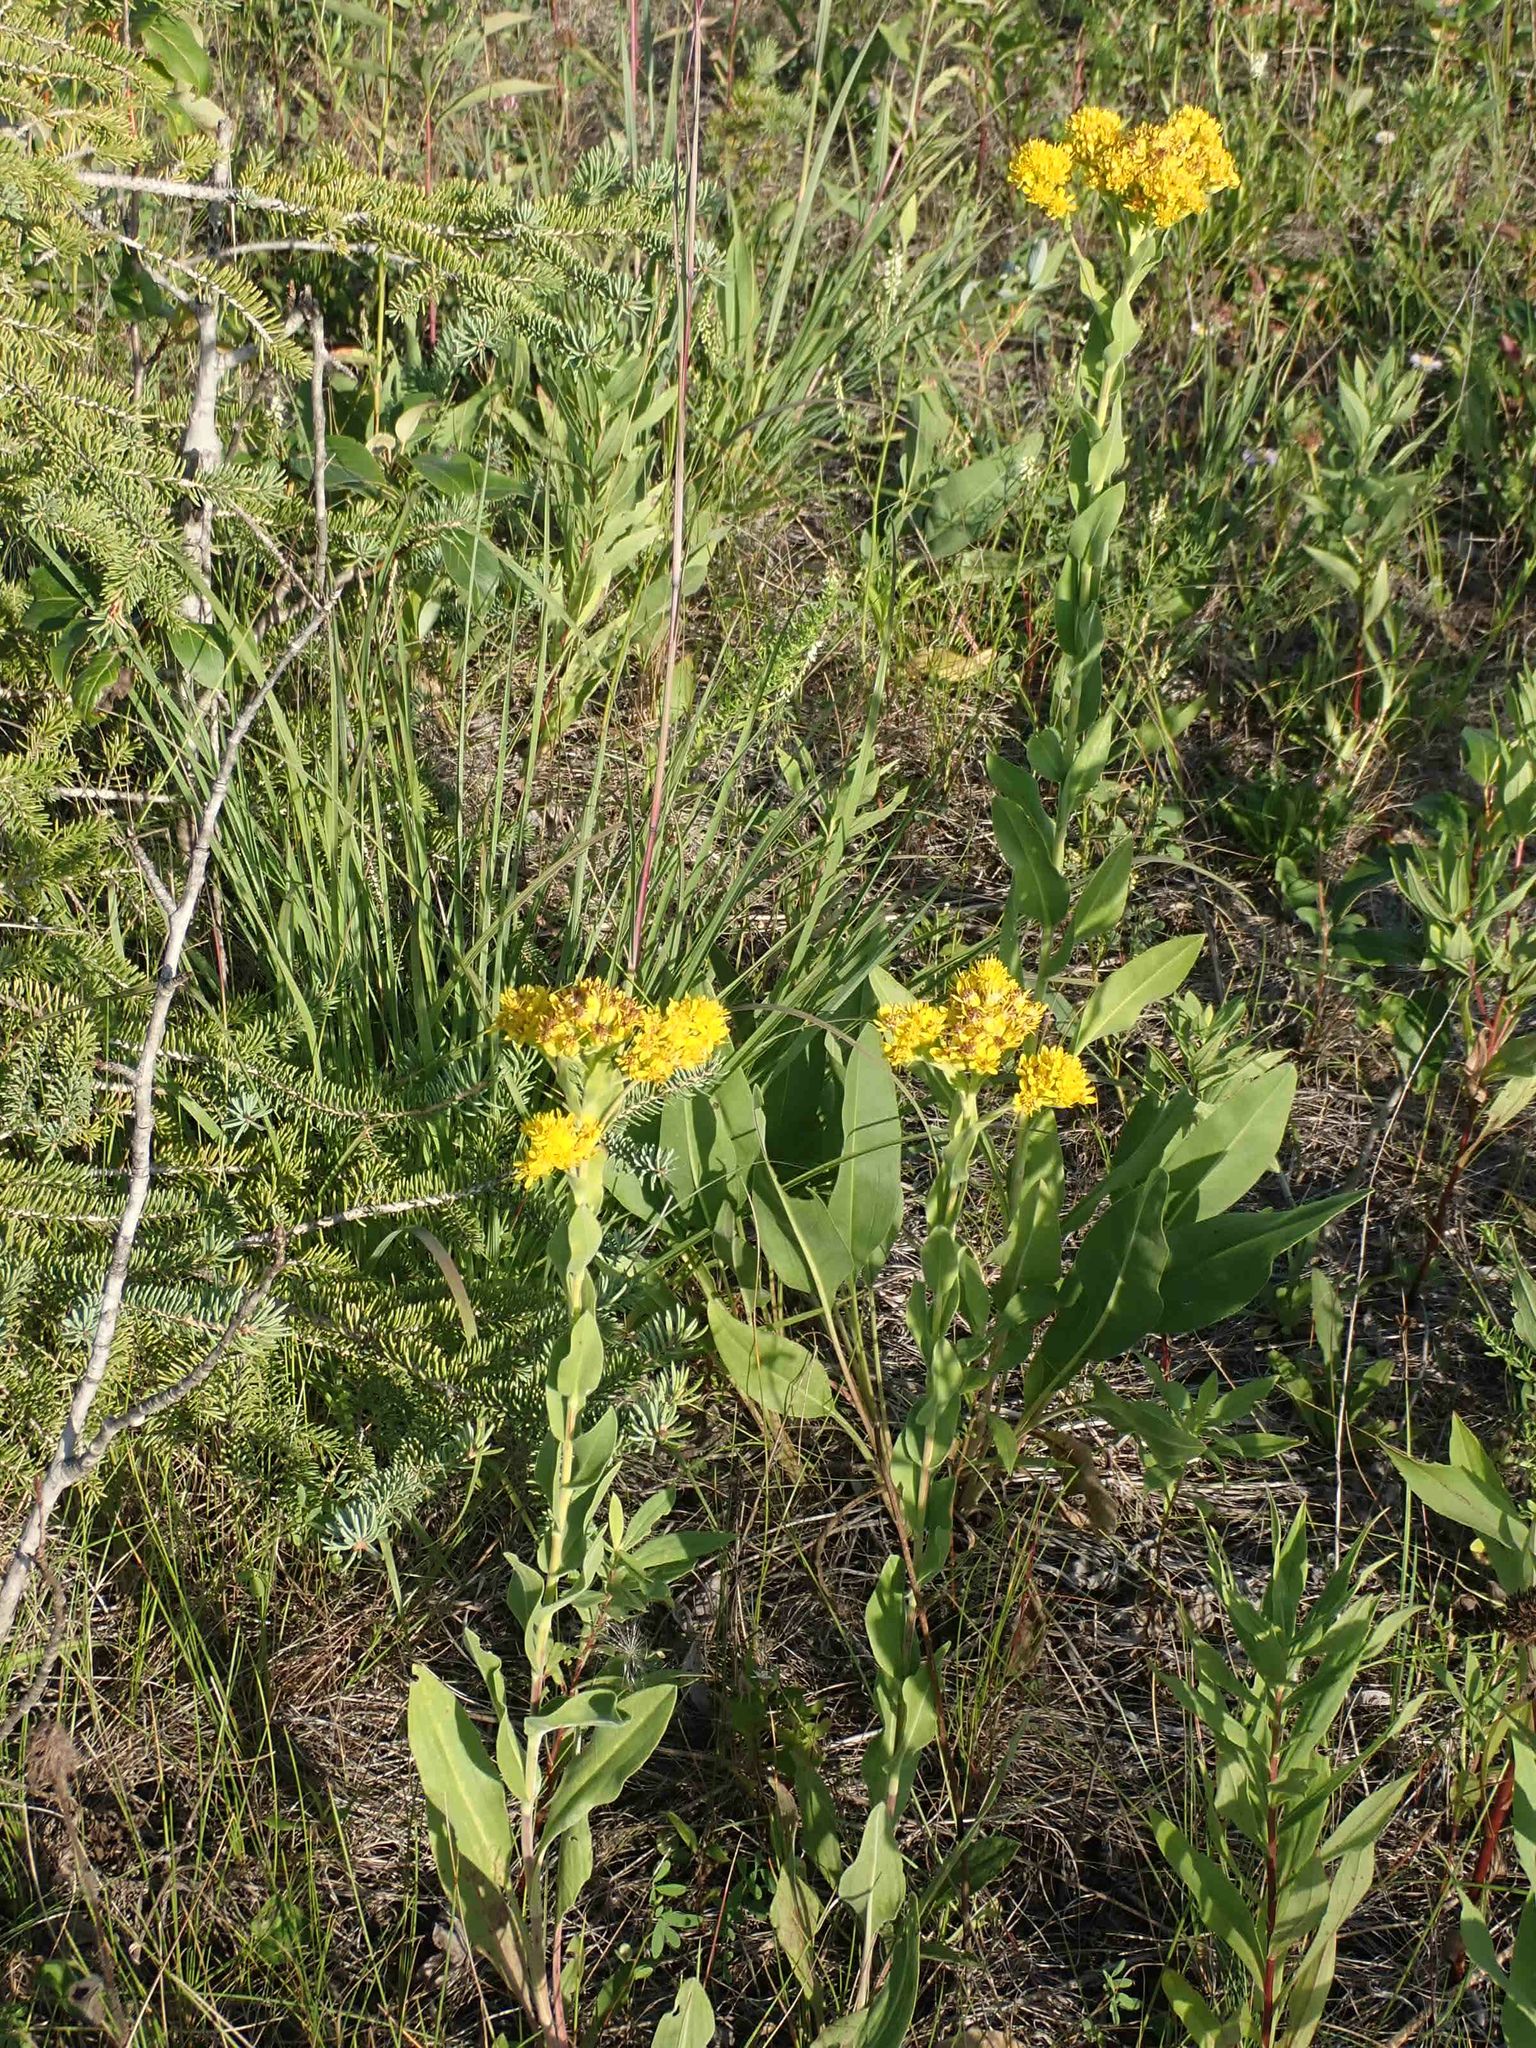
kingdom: Plantae
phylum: Tracheophyta
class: Magnoliopsida
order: Asterales
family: Asteraceae
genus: Solidago
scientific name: Solidago rigida
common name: Rigid goldenrod
